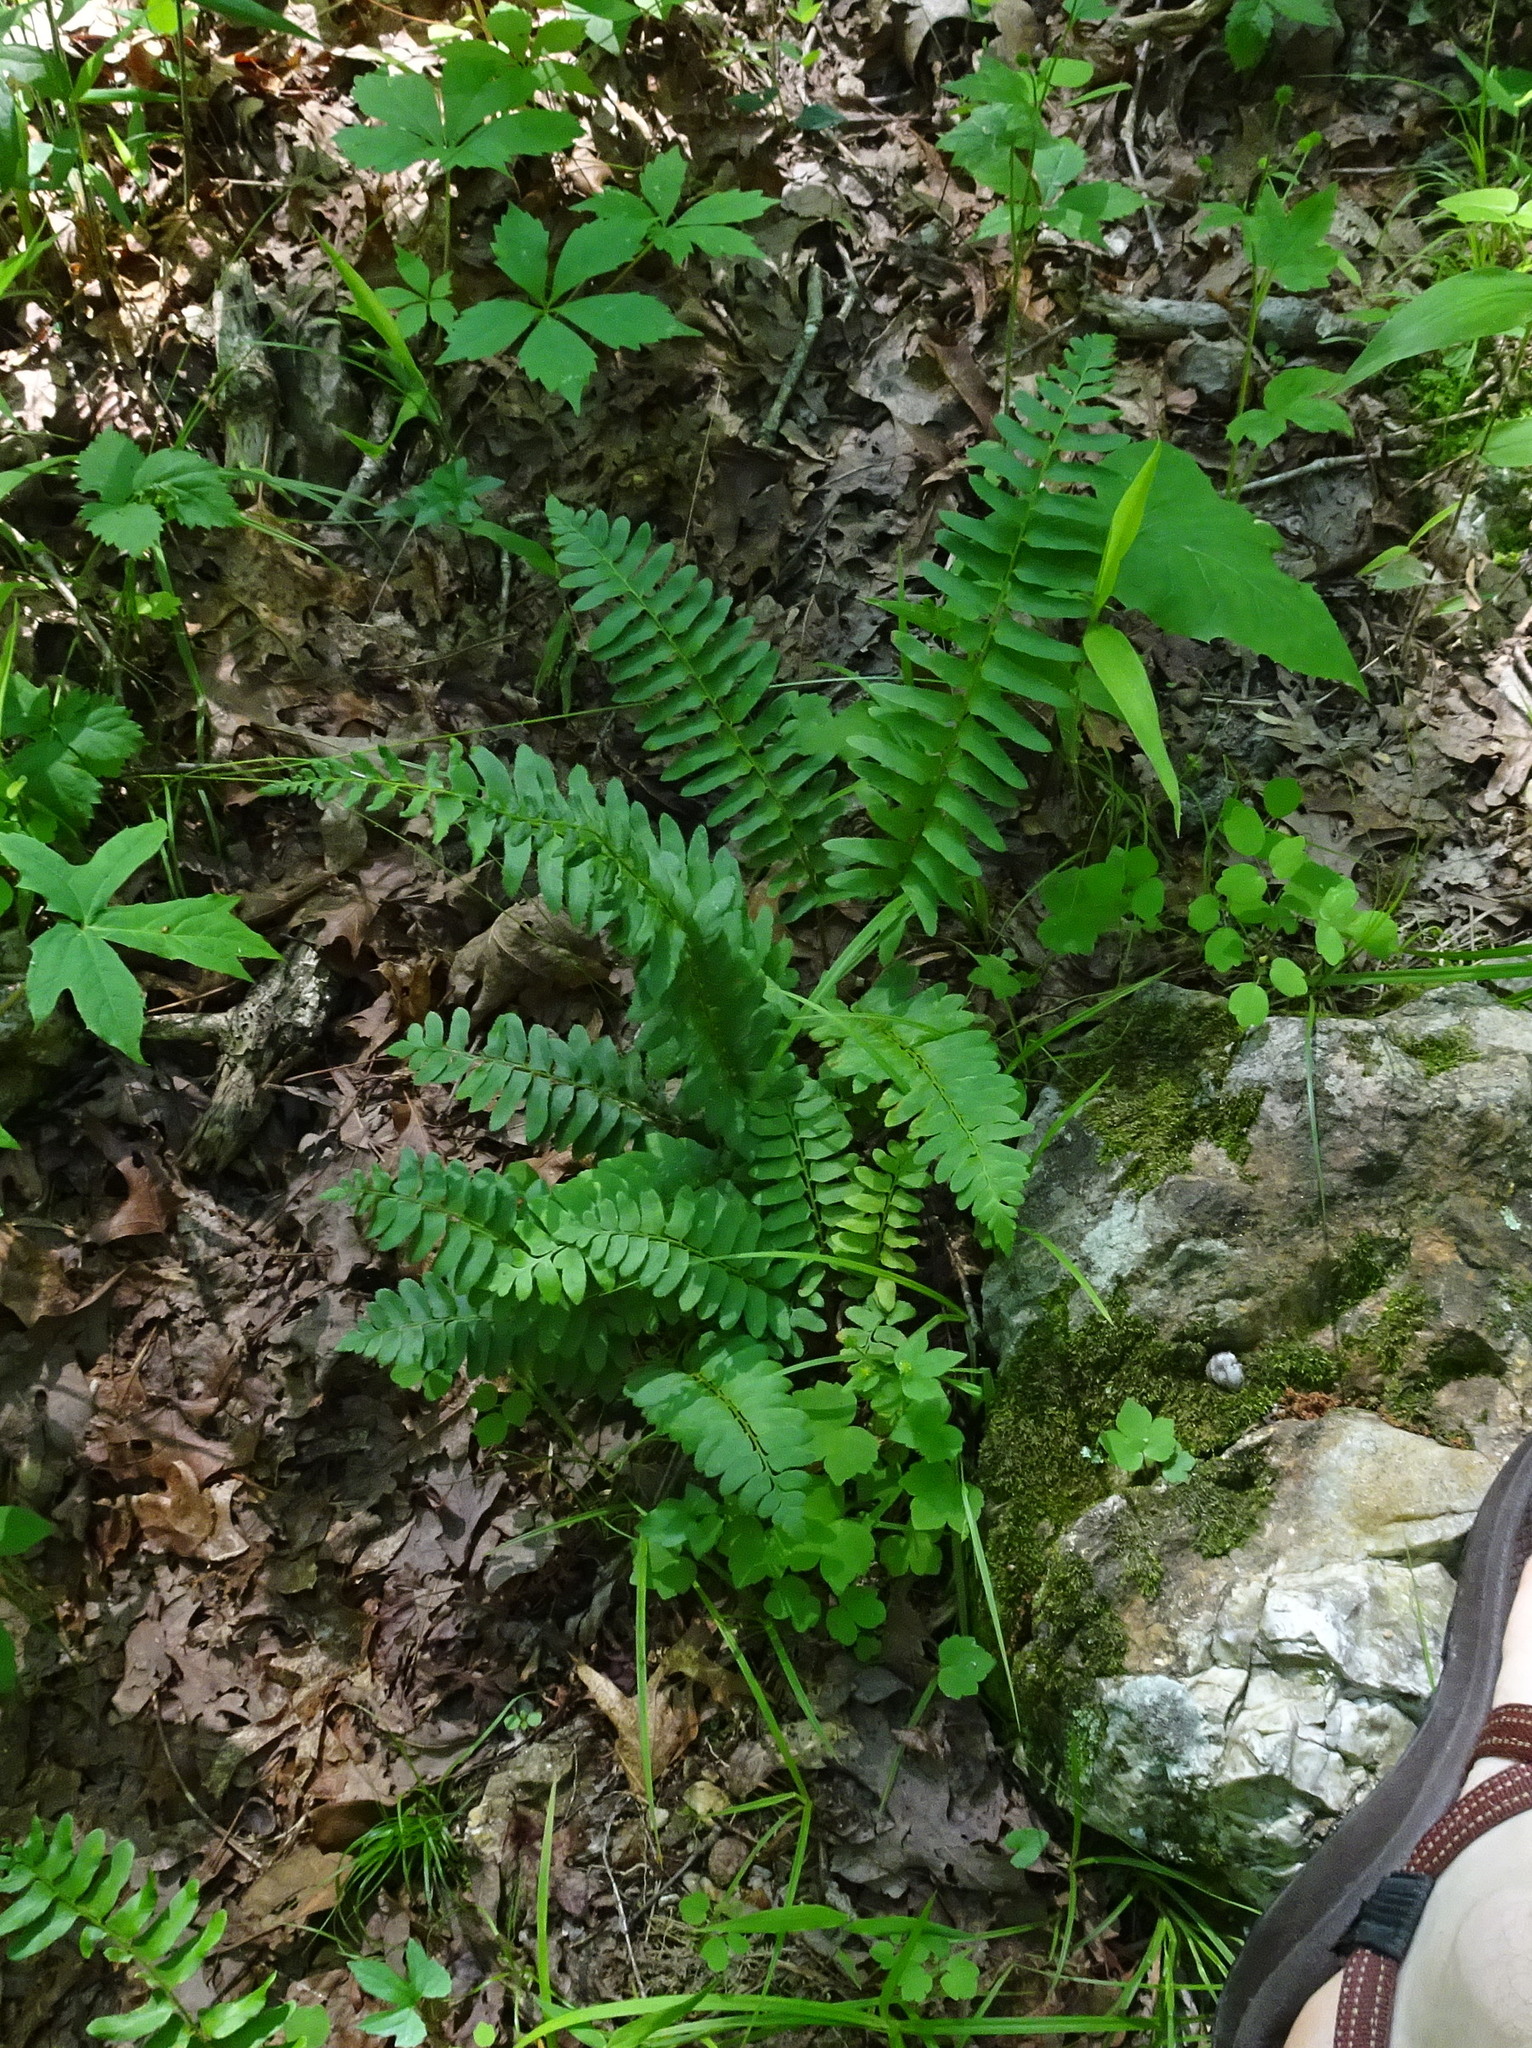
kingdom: Plantae
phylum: Tracheophyta
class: Polypodiopsida
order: Polypodiales
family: Dryopteridaceae
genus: Polystichum
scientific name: Polystichum acrostichoides
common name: Christmas fern
